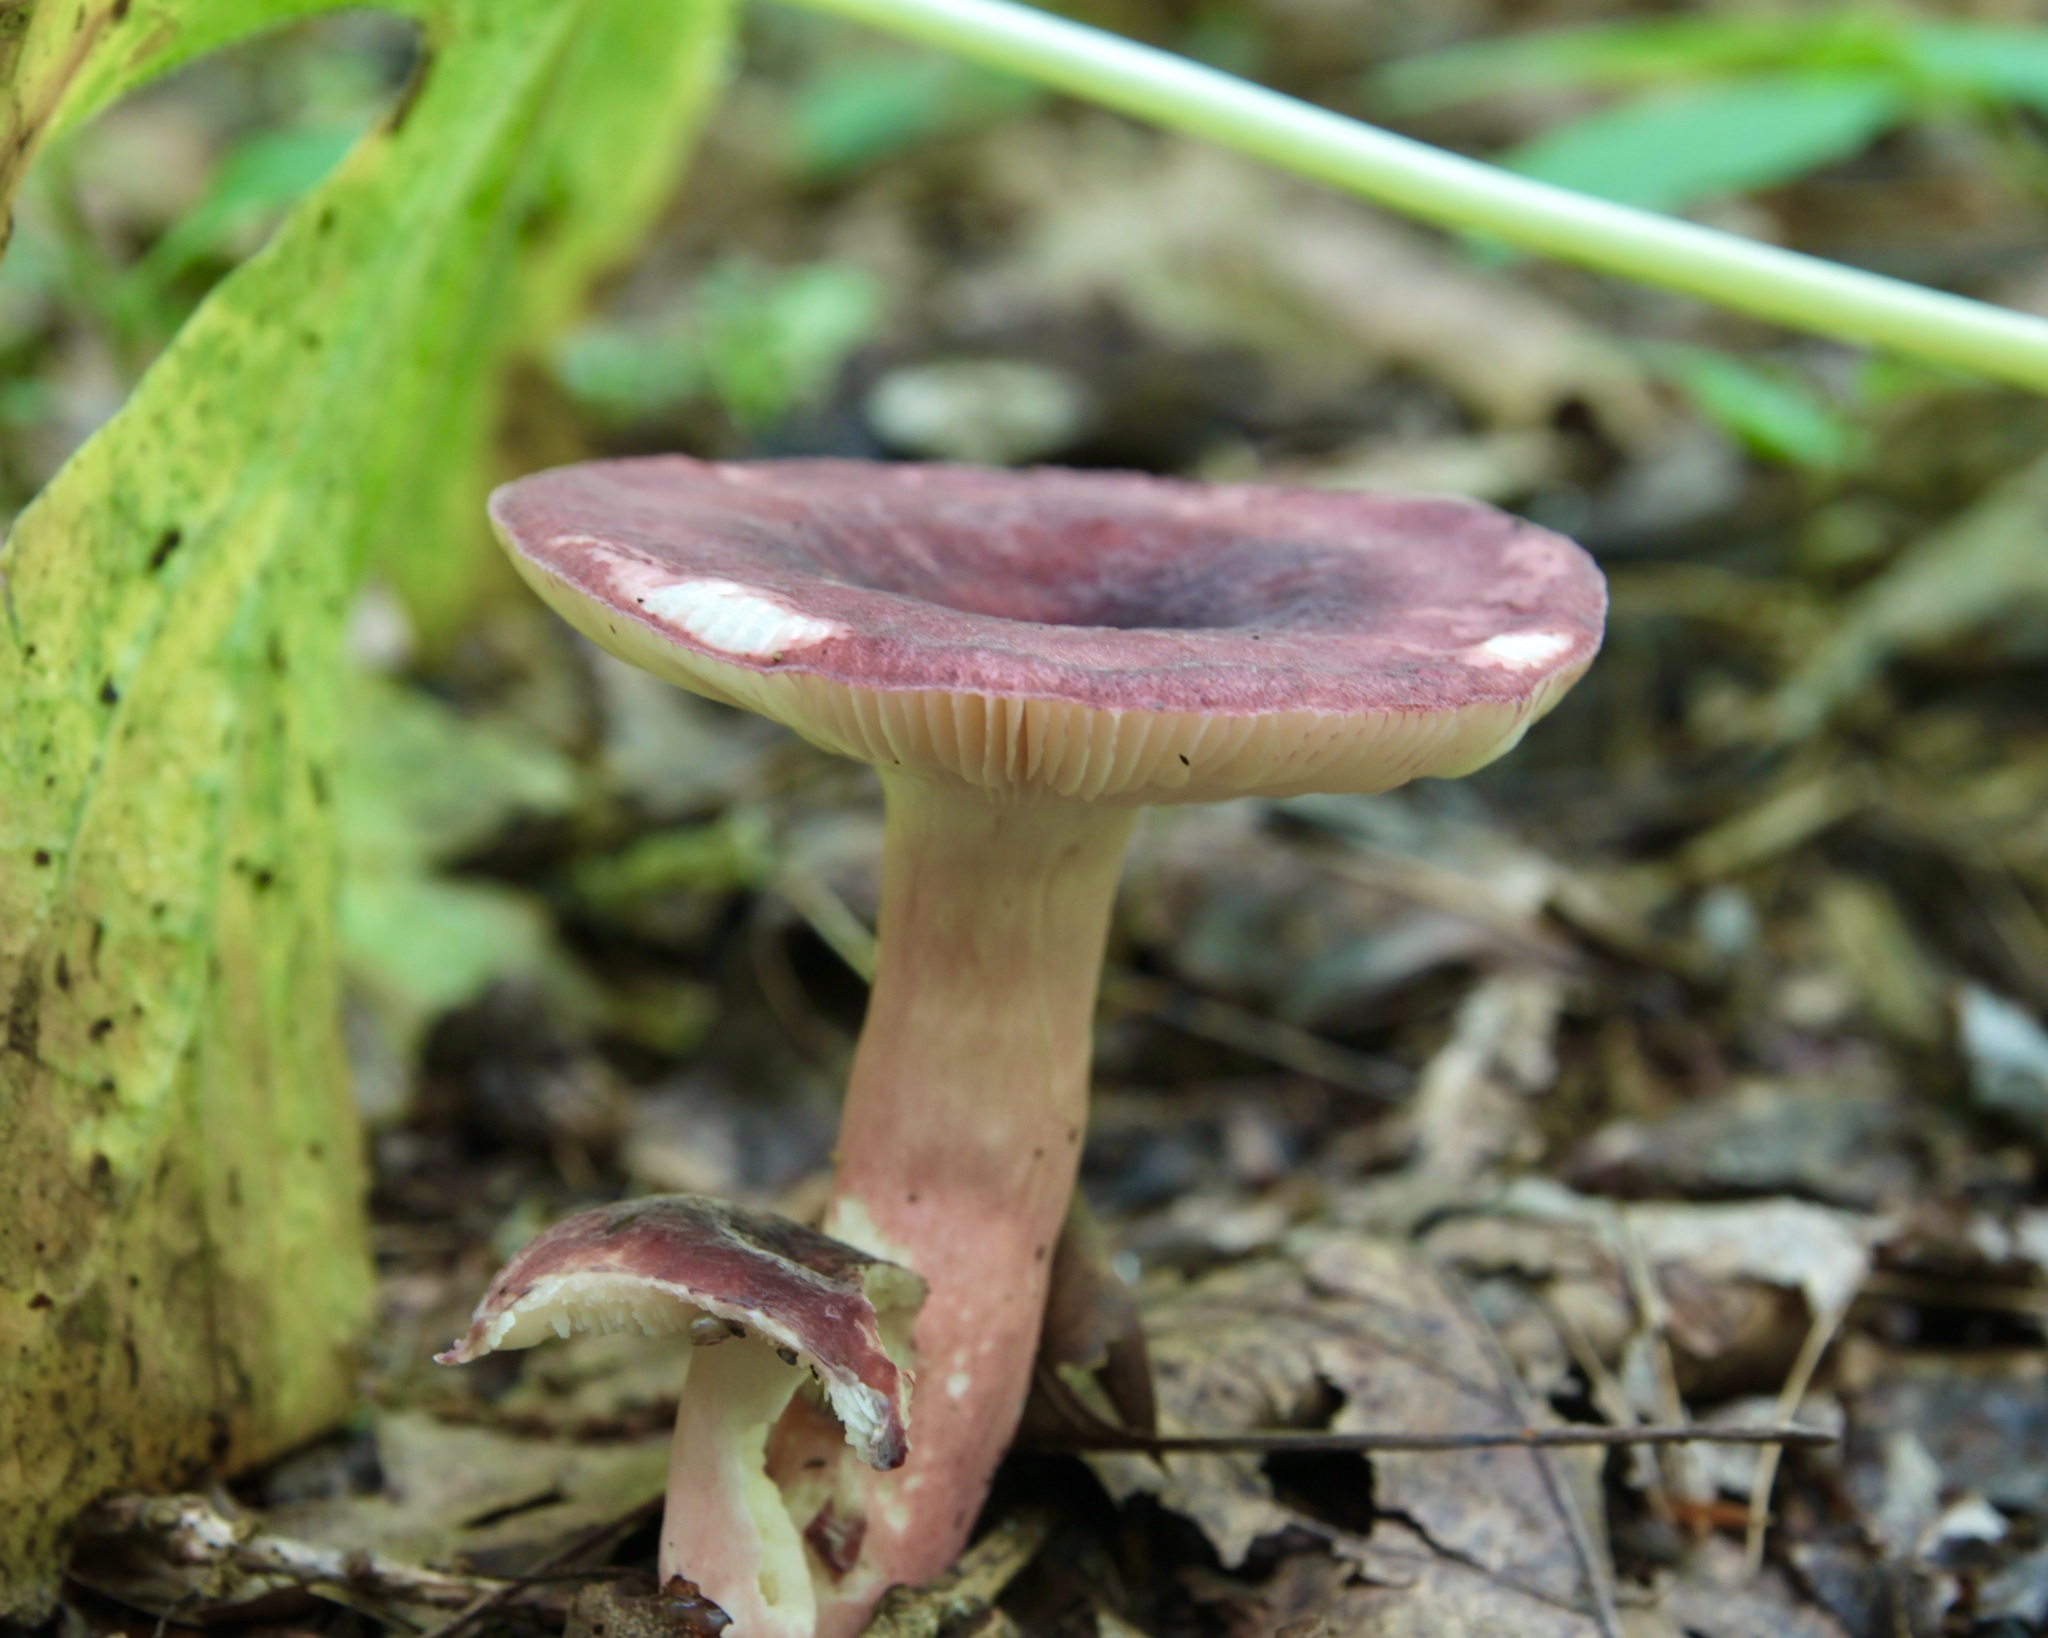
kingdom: Fungi
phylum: Basidiomycota
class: Agaricomycetes
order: Russulales
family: Russulaceae
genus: Russula
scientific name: Russula mariae
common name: Purple-bloom russula
